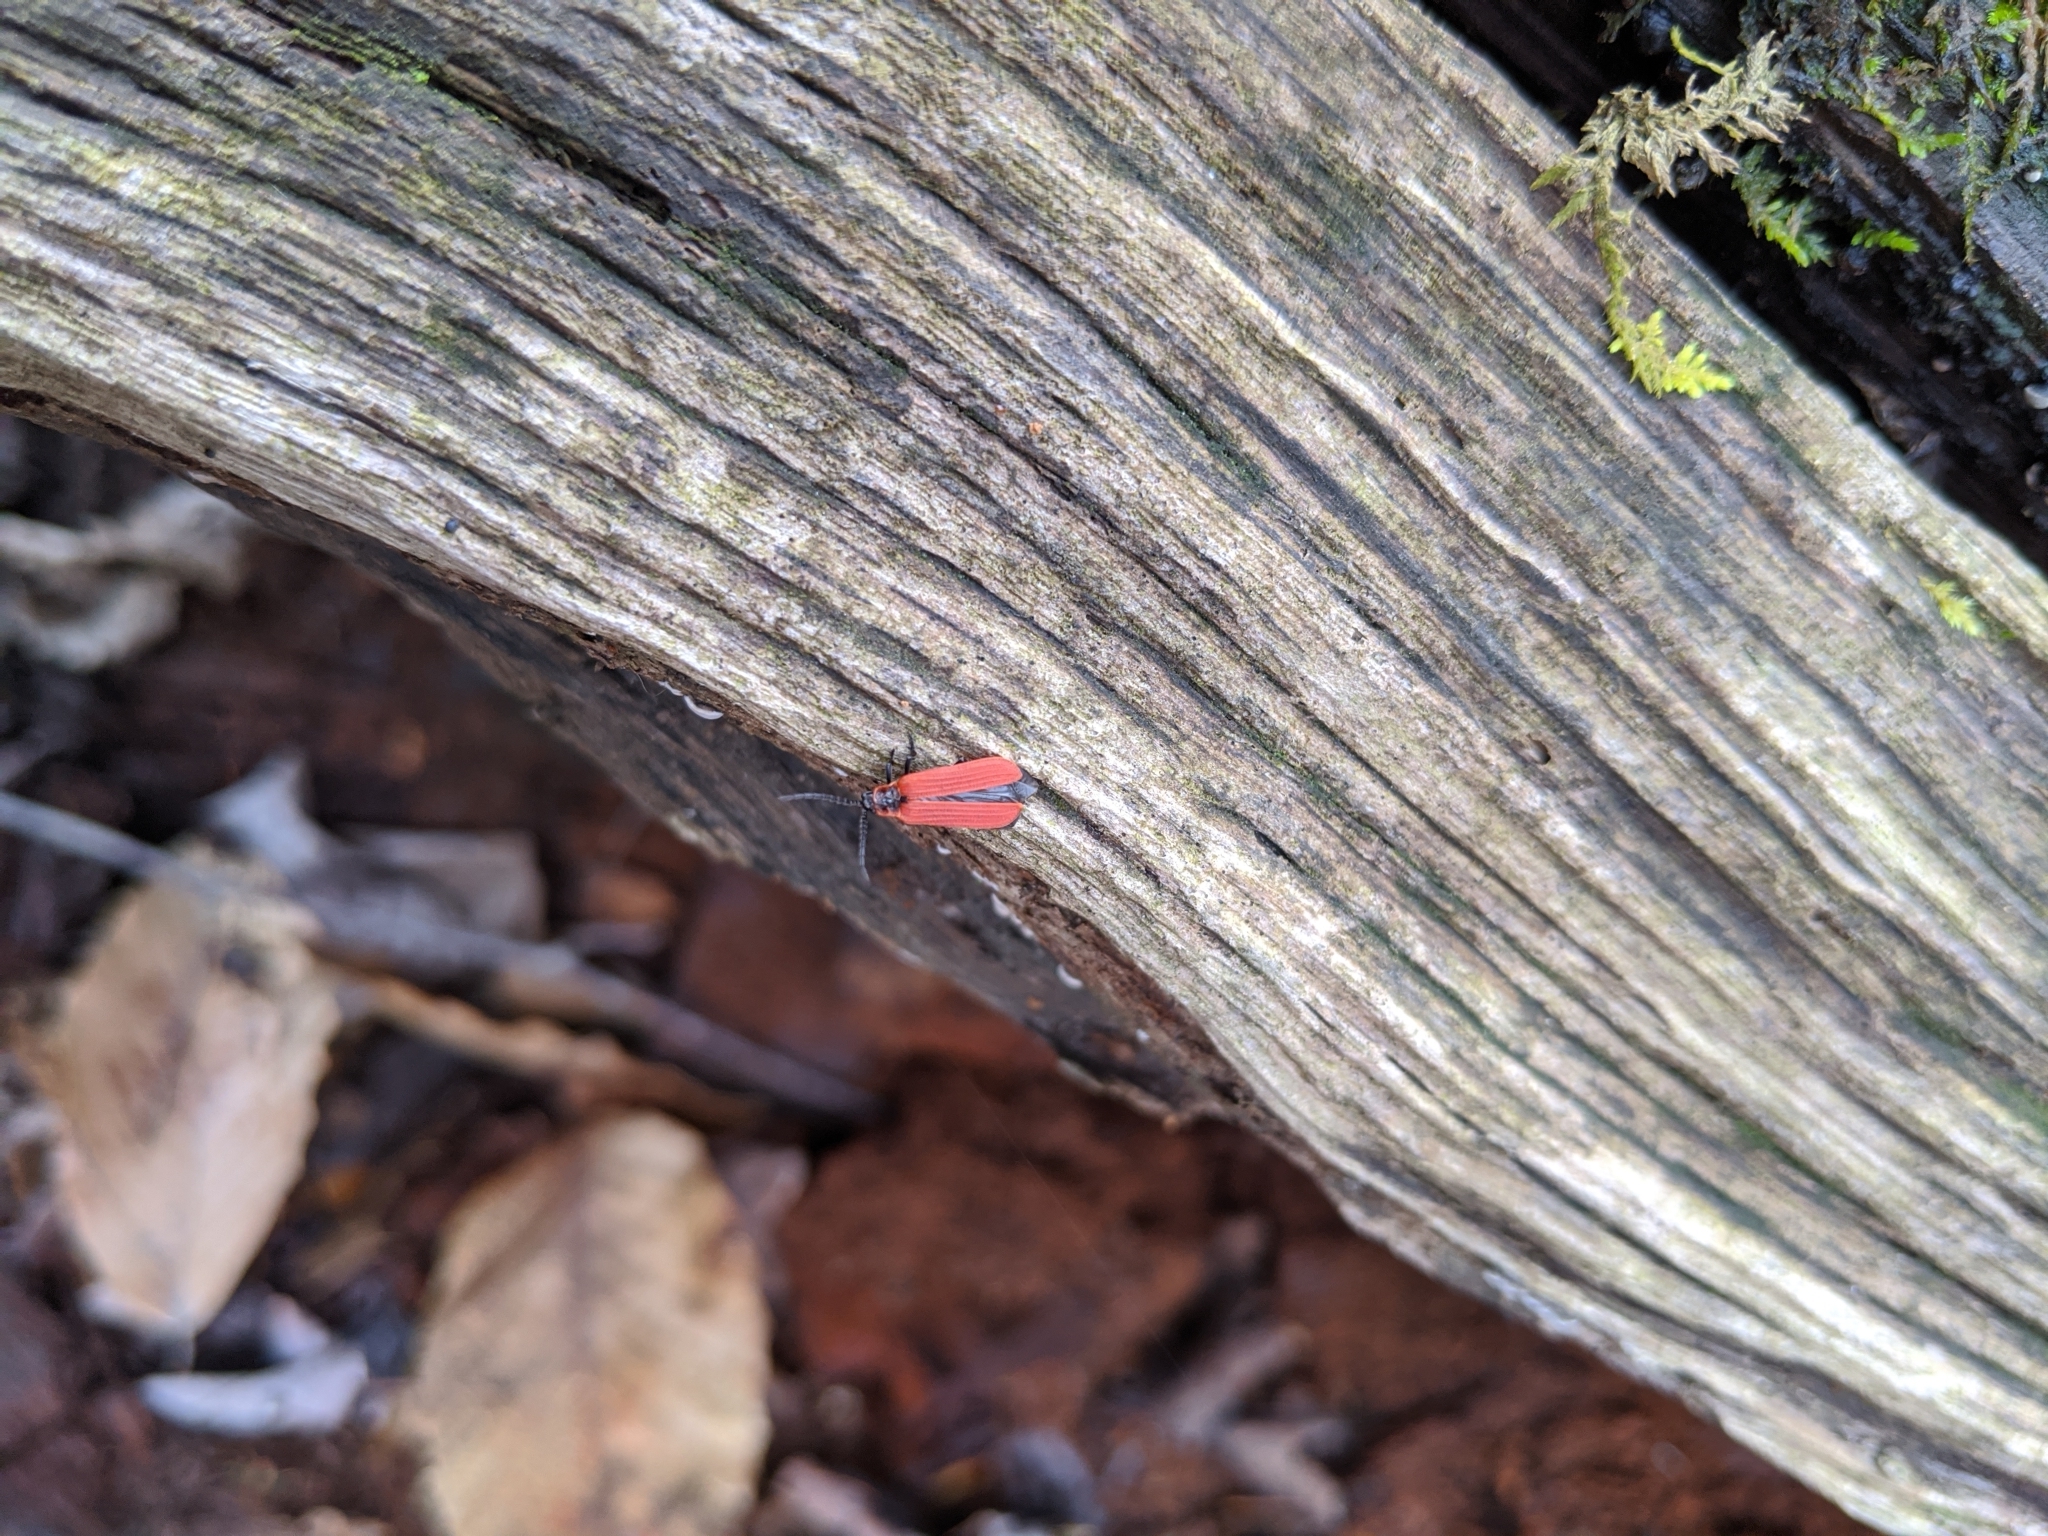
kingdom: Animalia
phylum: Arthropoda
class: Insecta
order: Coleoptera
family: Lycidae
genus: Dictyoptera
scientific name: Dictyoptera aurora
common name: Golden net-winged beetle
